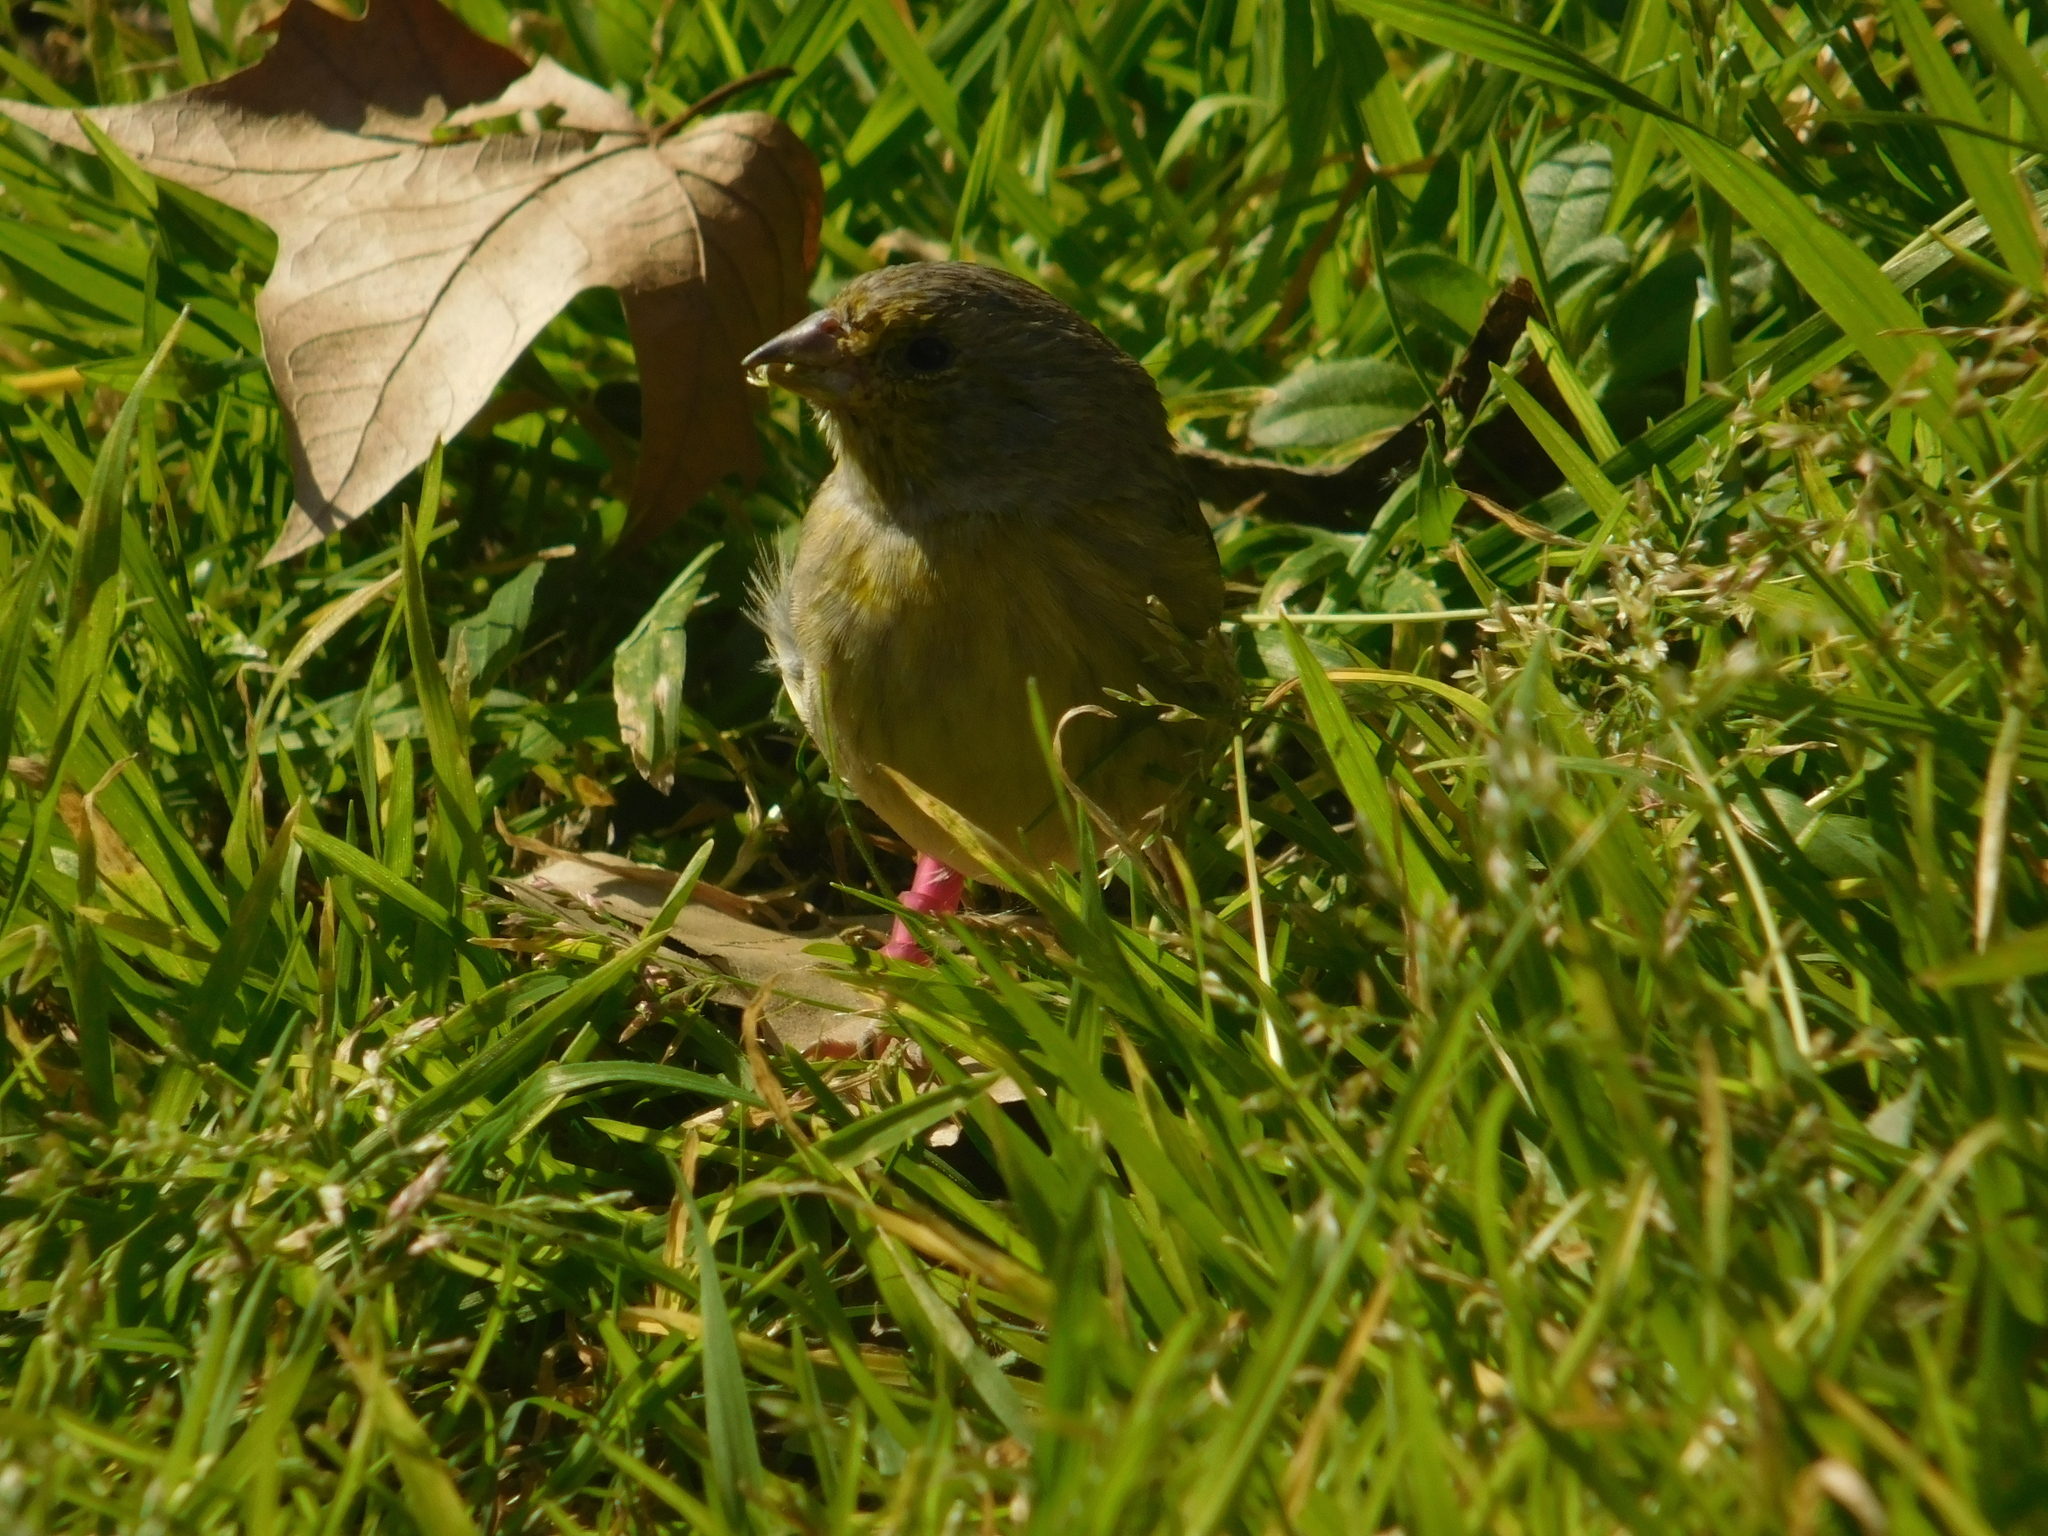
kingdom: Animalia
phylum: Chordata
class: Aves
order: Passeriformes
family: Thraupidae
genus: Sicalis
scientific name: Sicalis flaveola
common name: Saffron finch
